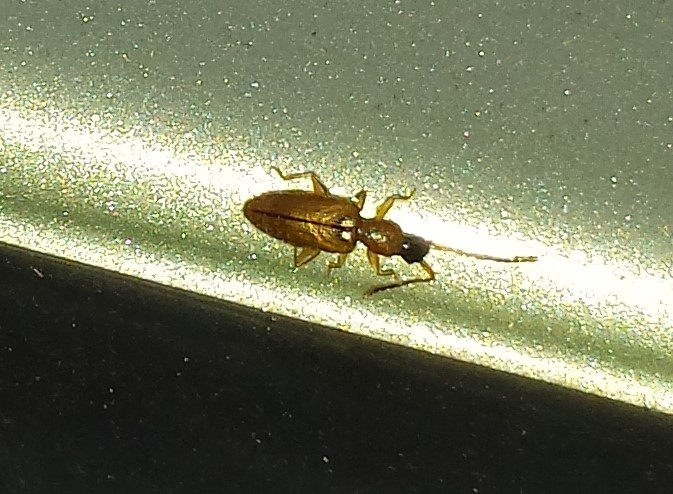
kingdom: Animalia
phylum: Arthropoda
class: Insecta
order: Coleoptera
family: Silvanidae
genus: Telephanus
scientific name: Telephanus velox
